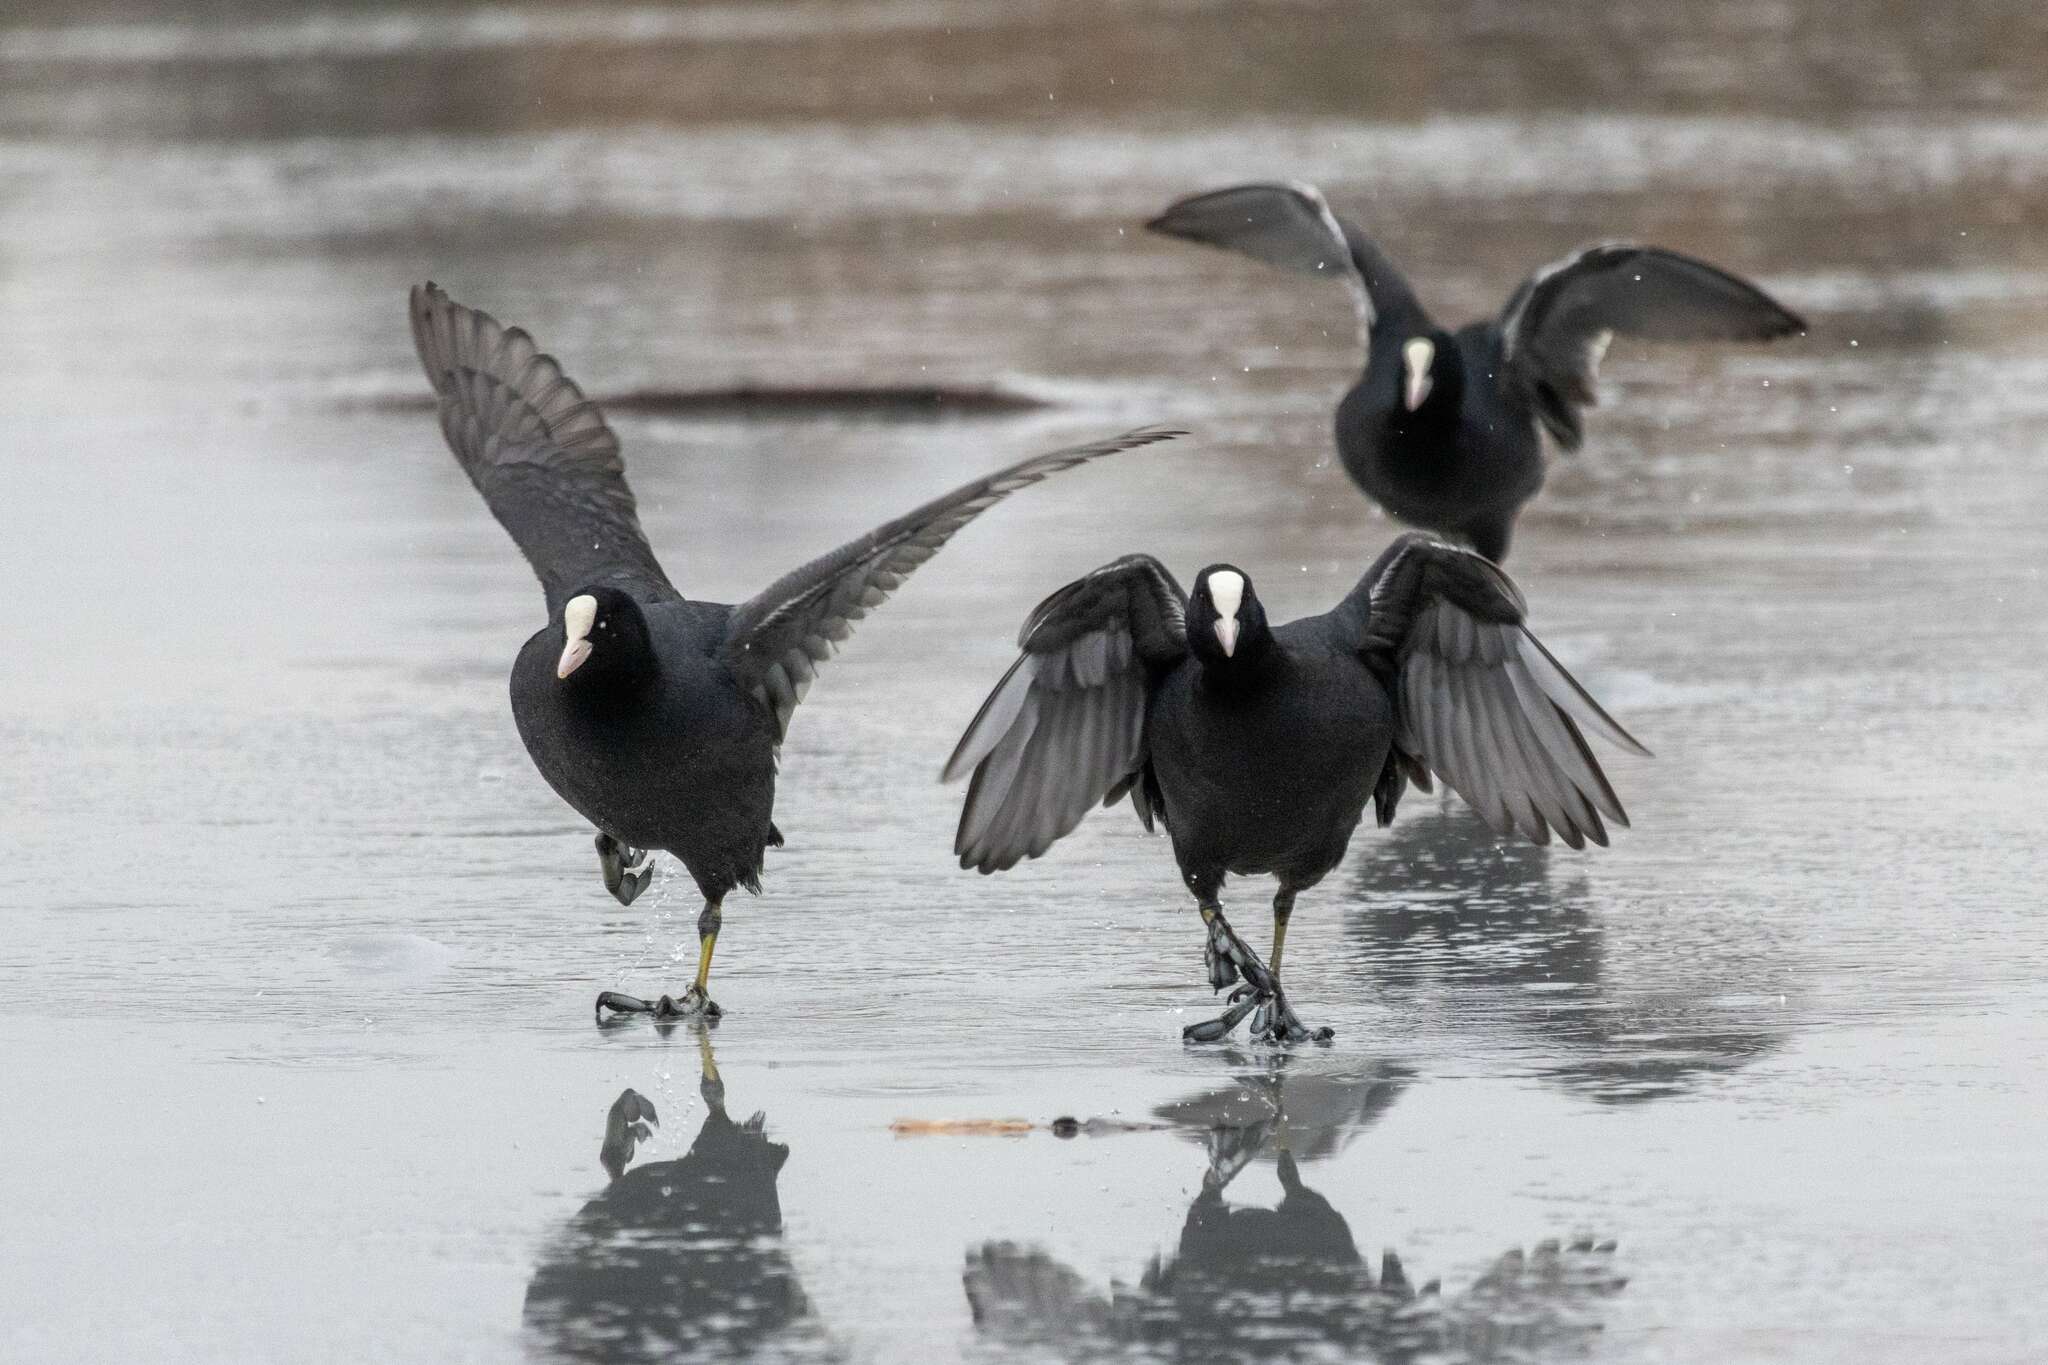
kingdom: Animalia
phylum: Chordata
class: Aves
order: Gruiformes
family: Rallidae
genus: Fulica
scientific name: Fulica atra
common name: Eurasian coot
